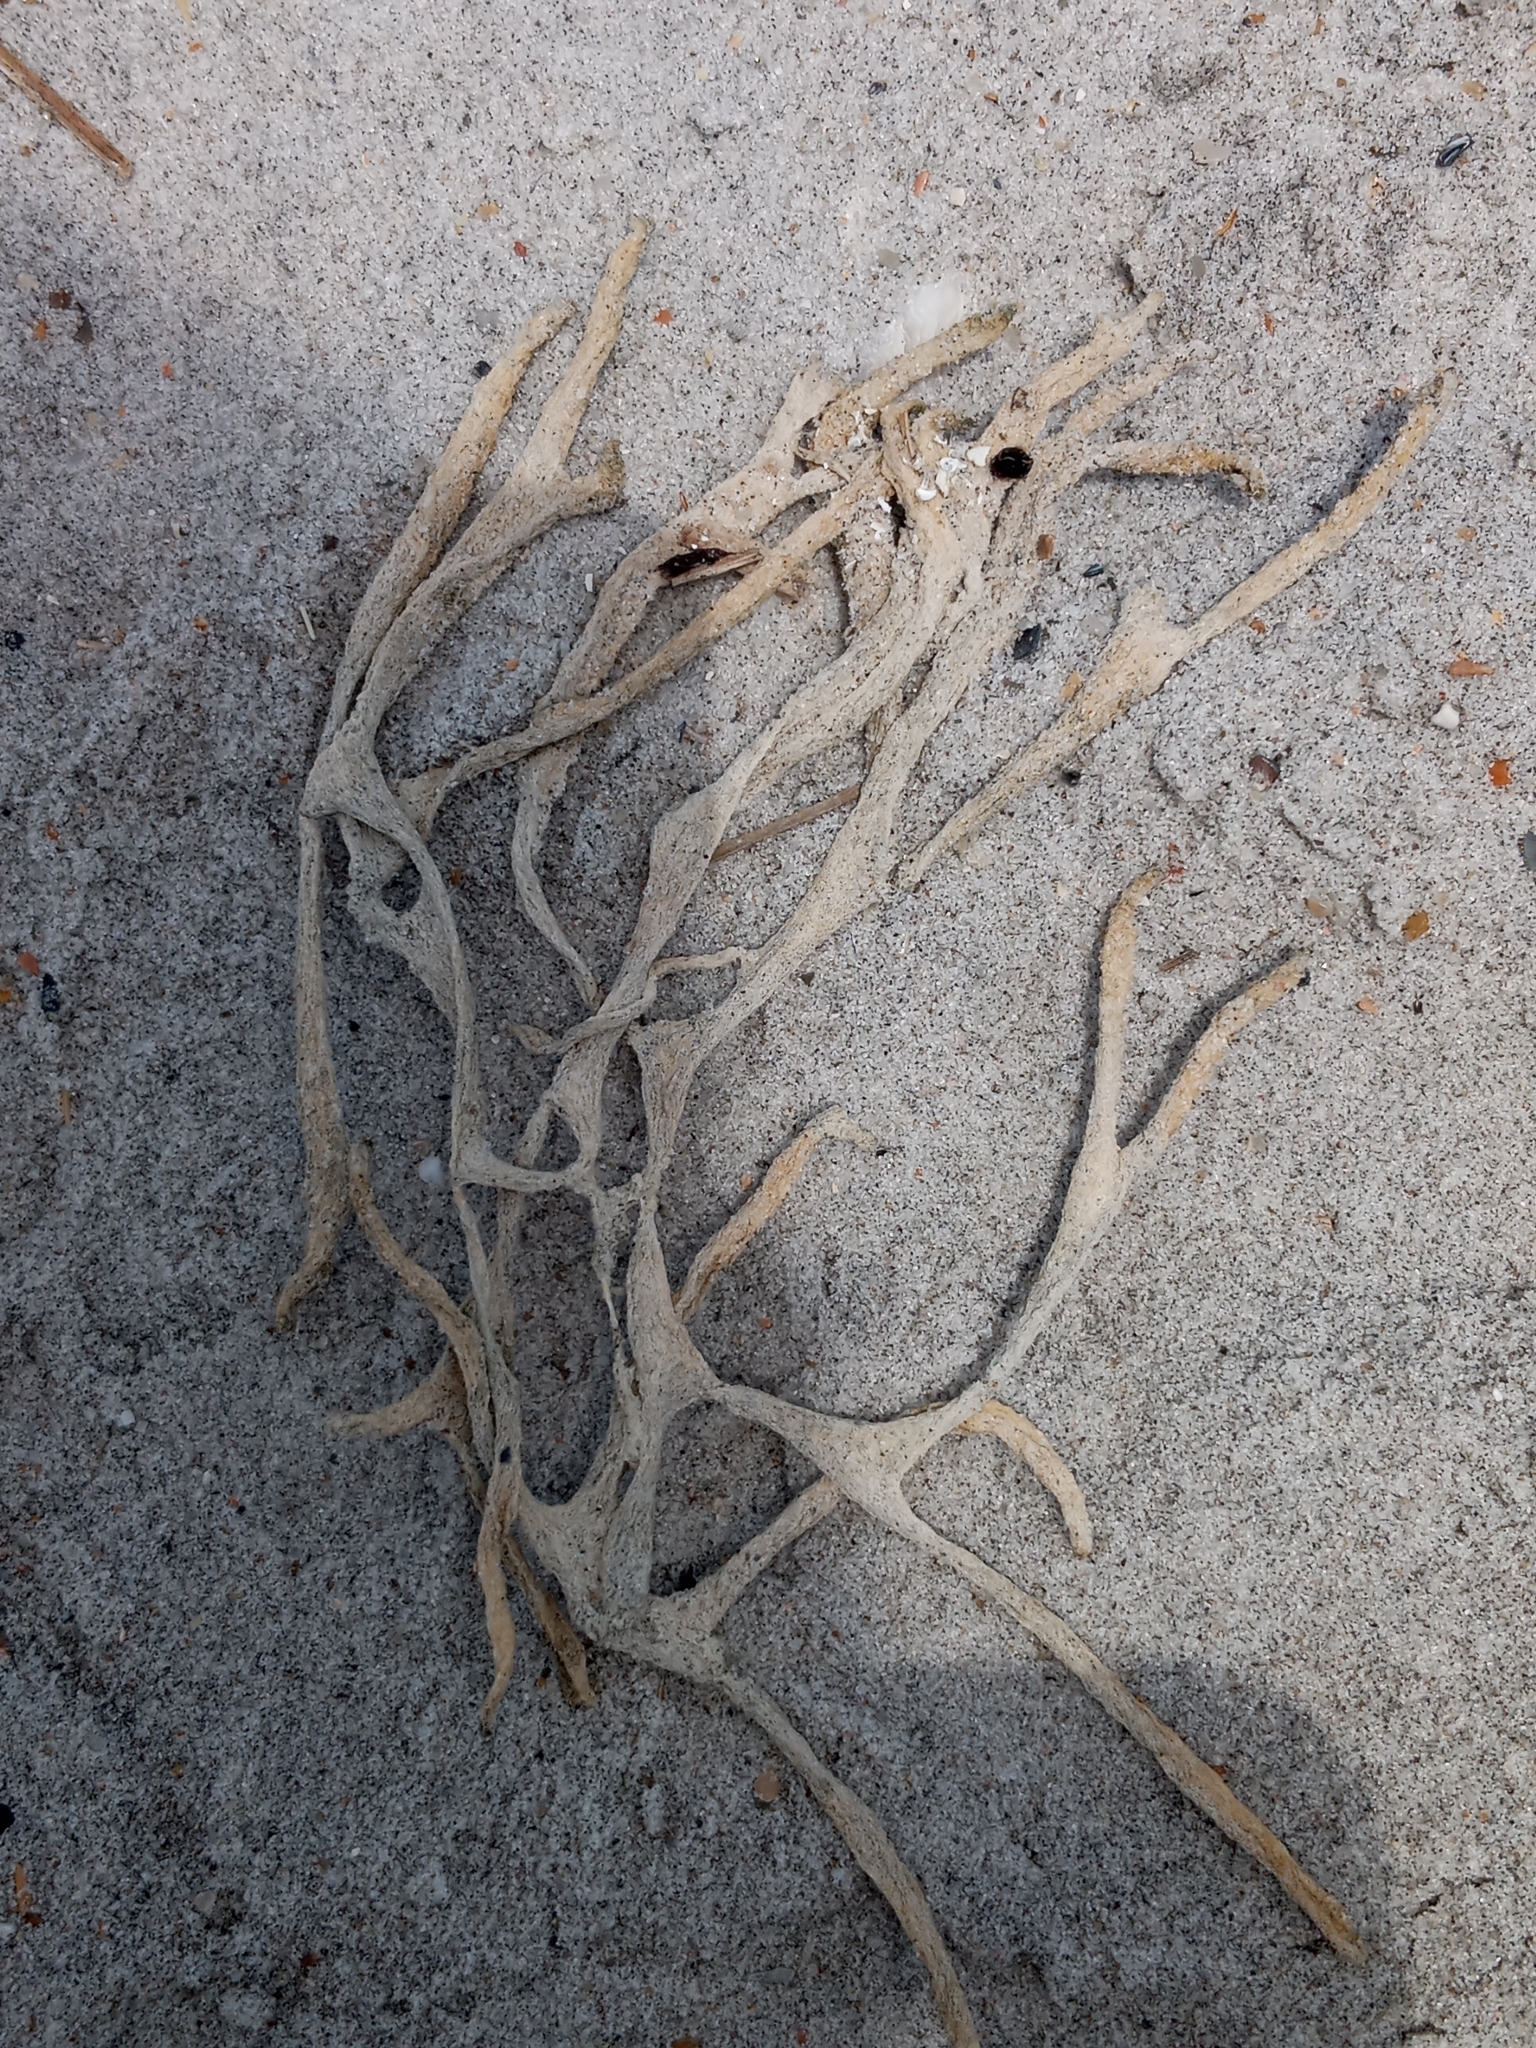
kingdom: Animalia
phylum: Porifera
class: Demospongiae
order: Haplosclerida
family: Chalinidae
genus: Haliclona
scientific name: Haliclona oculata
